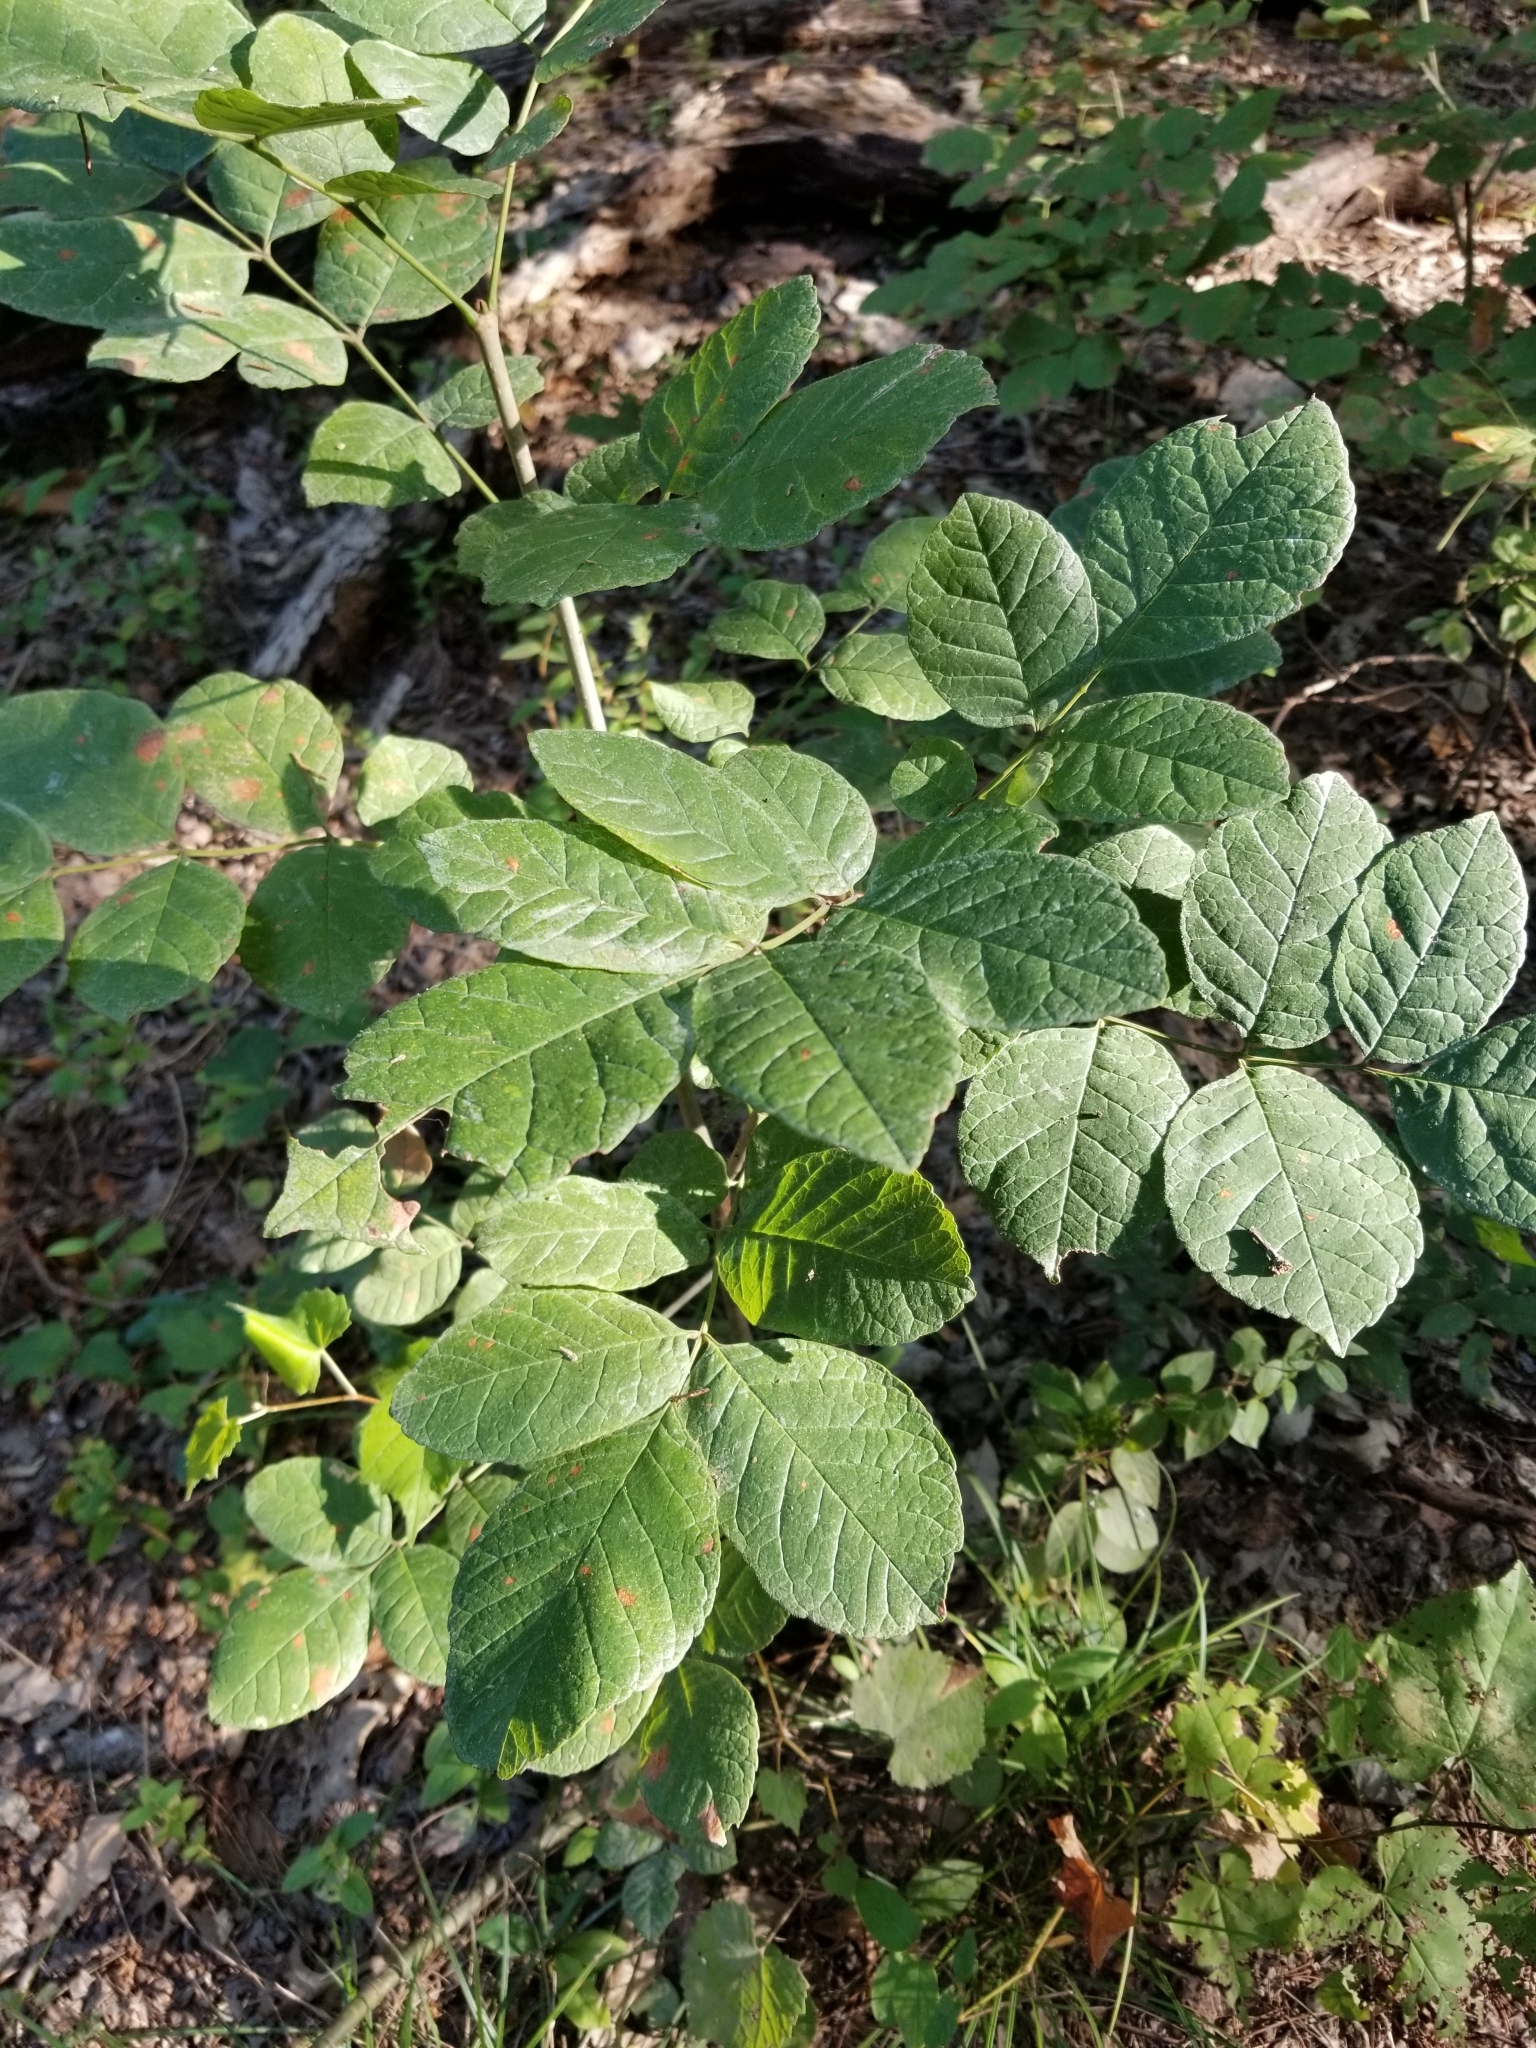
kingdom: Plantae
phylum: Tracheophyta
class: Magnoliopsida
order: Lamiales
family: Oleaceae
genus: Fraxinus
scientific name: Fraxinus albicans
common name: Texas ash
